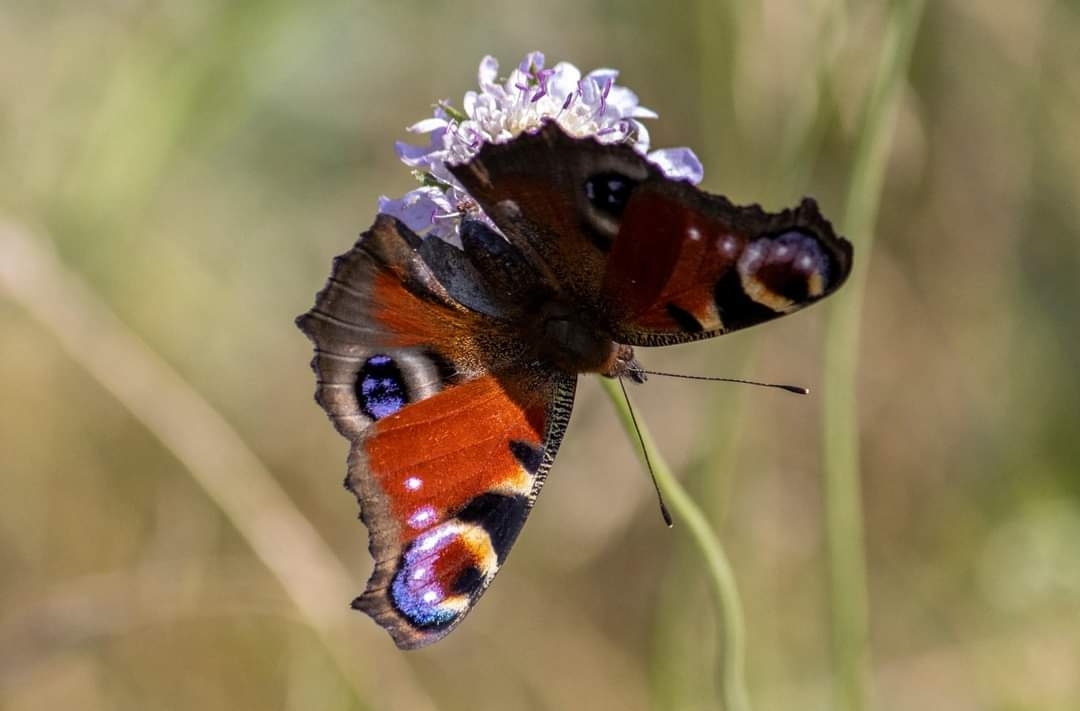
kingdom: Animalia
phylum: Arthropoda
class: Insecta
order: Lepidoptera
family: Nymphalidae
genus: Aglais
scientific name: Aglais io
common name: Peacock
